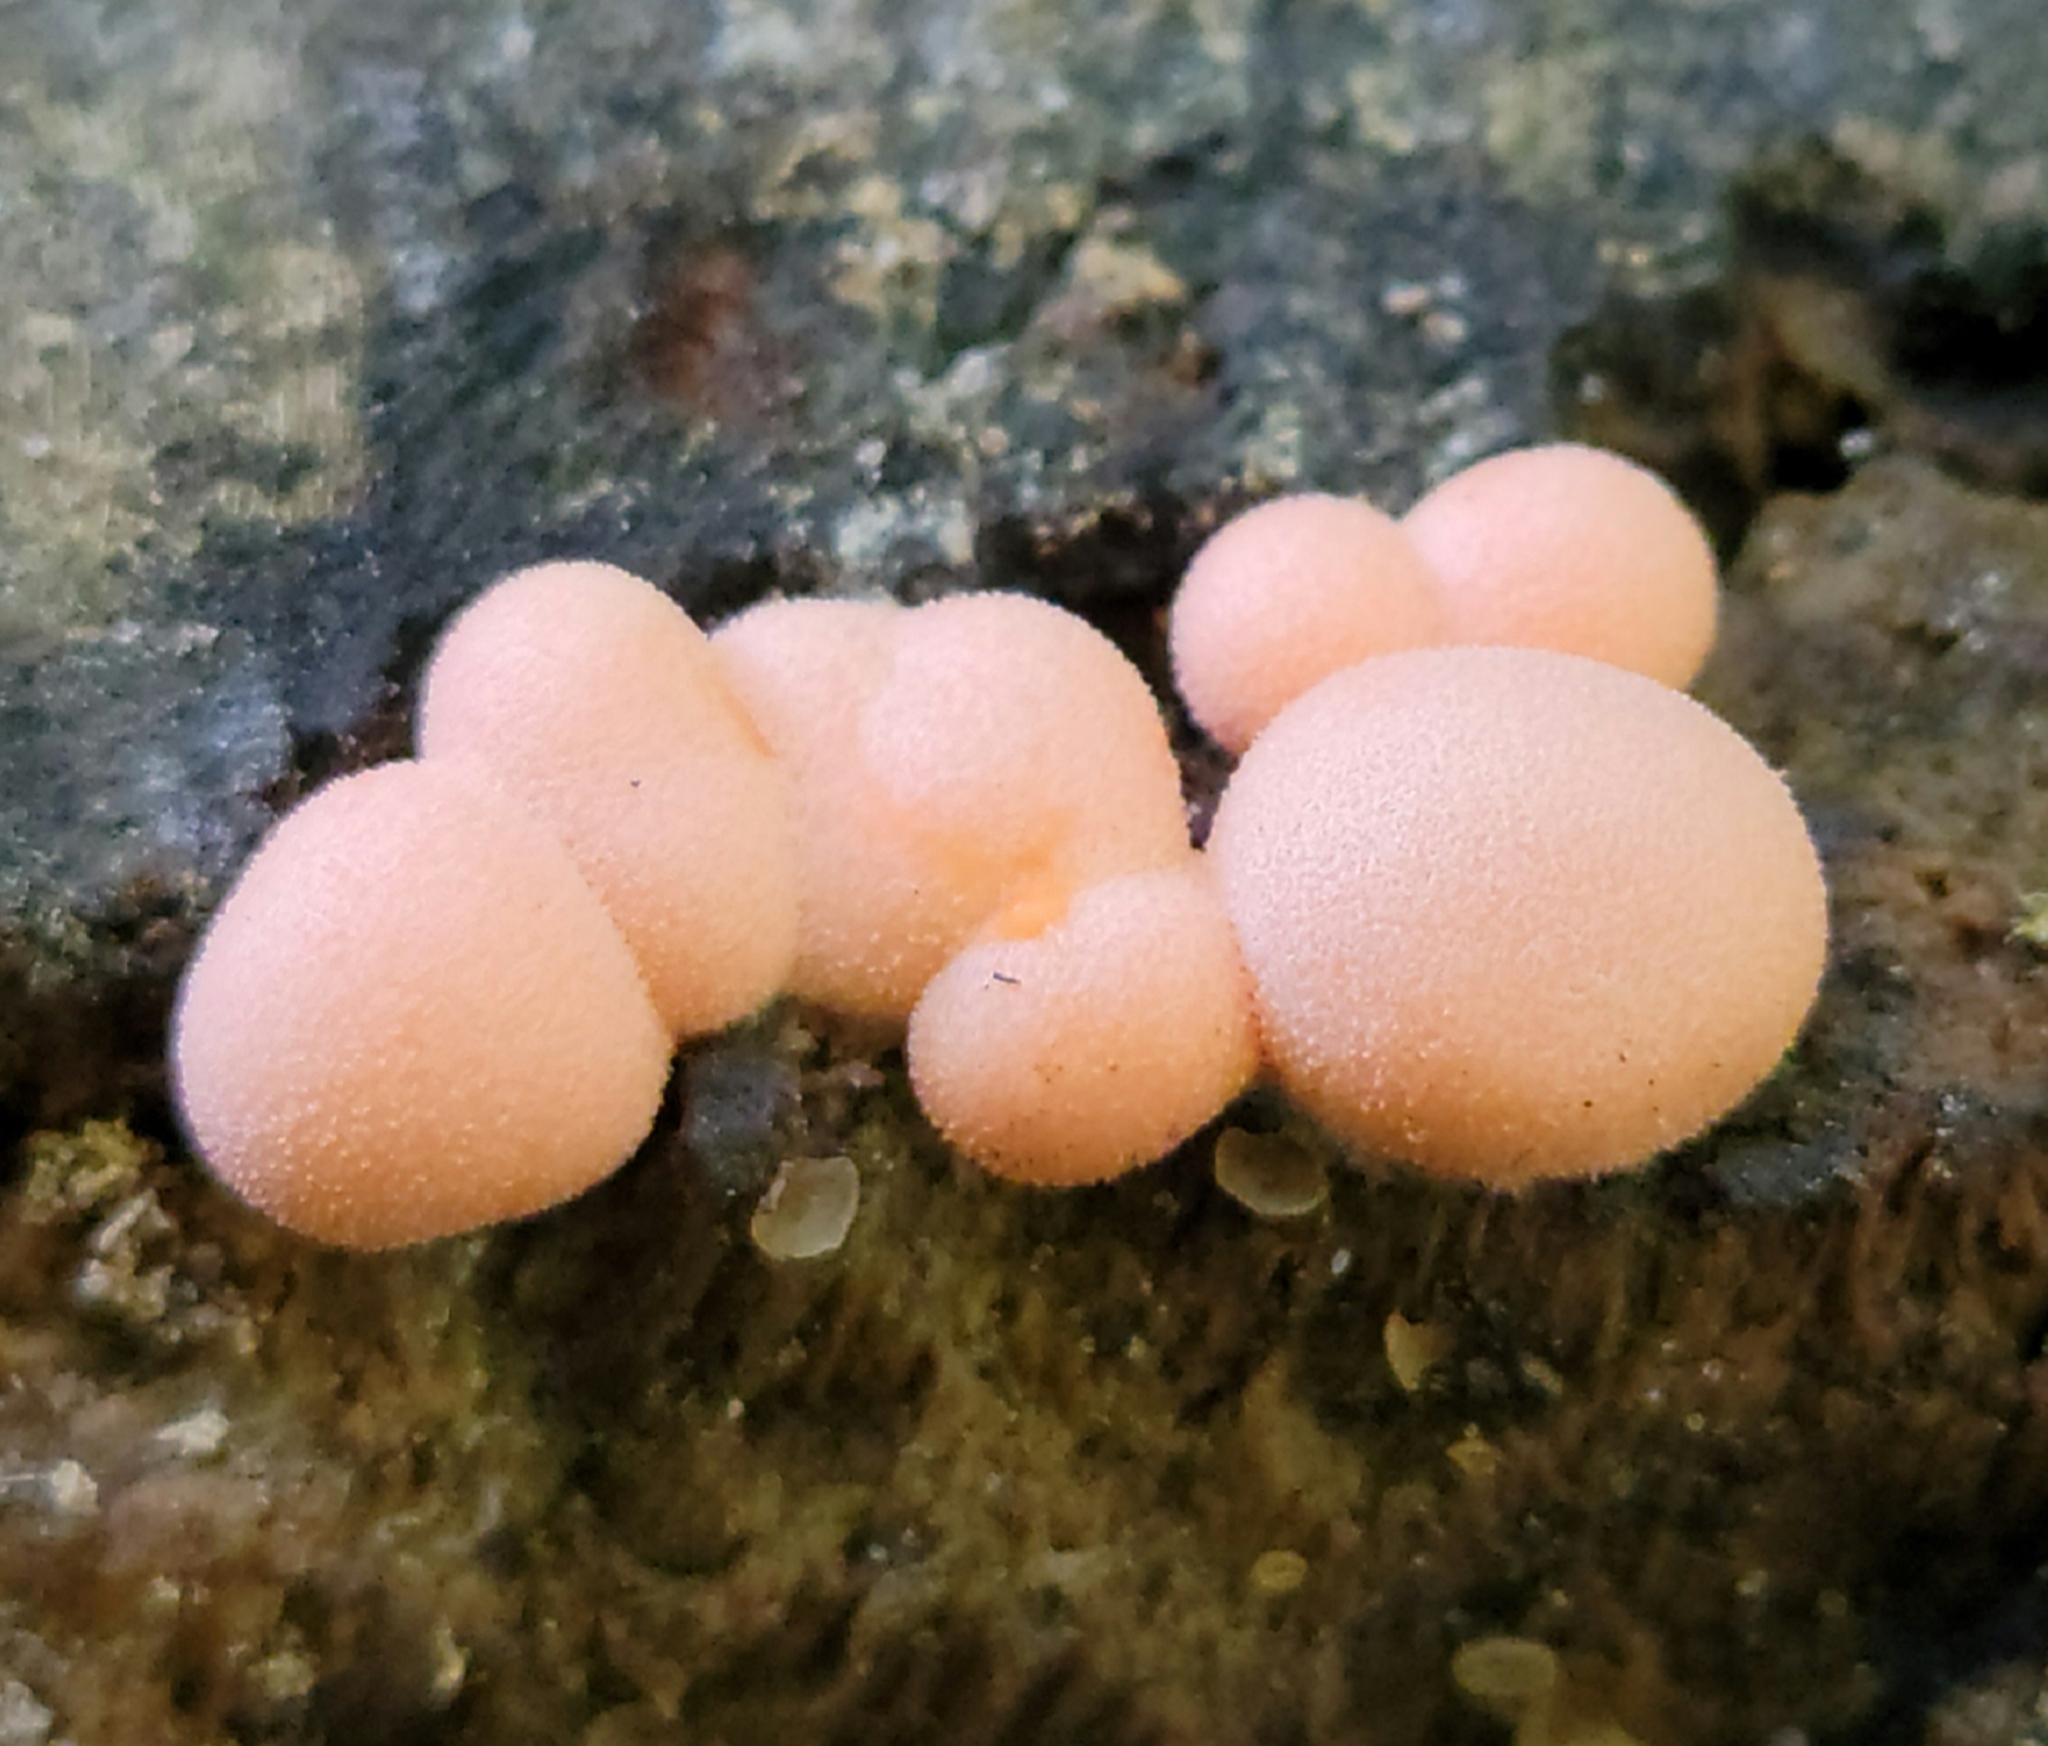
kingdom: Protozoa
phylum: Mycetozoa
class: Myxomycetes
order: Cribrariales
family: Tubiferaceae
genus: Lycogala
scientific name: Lycogala epidendrum
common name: Wolf's milk
